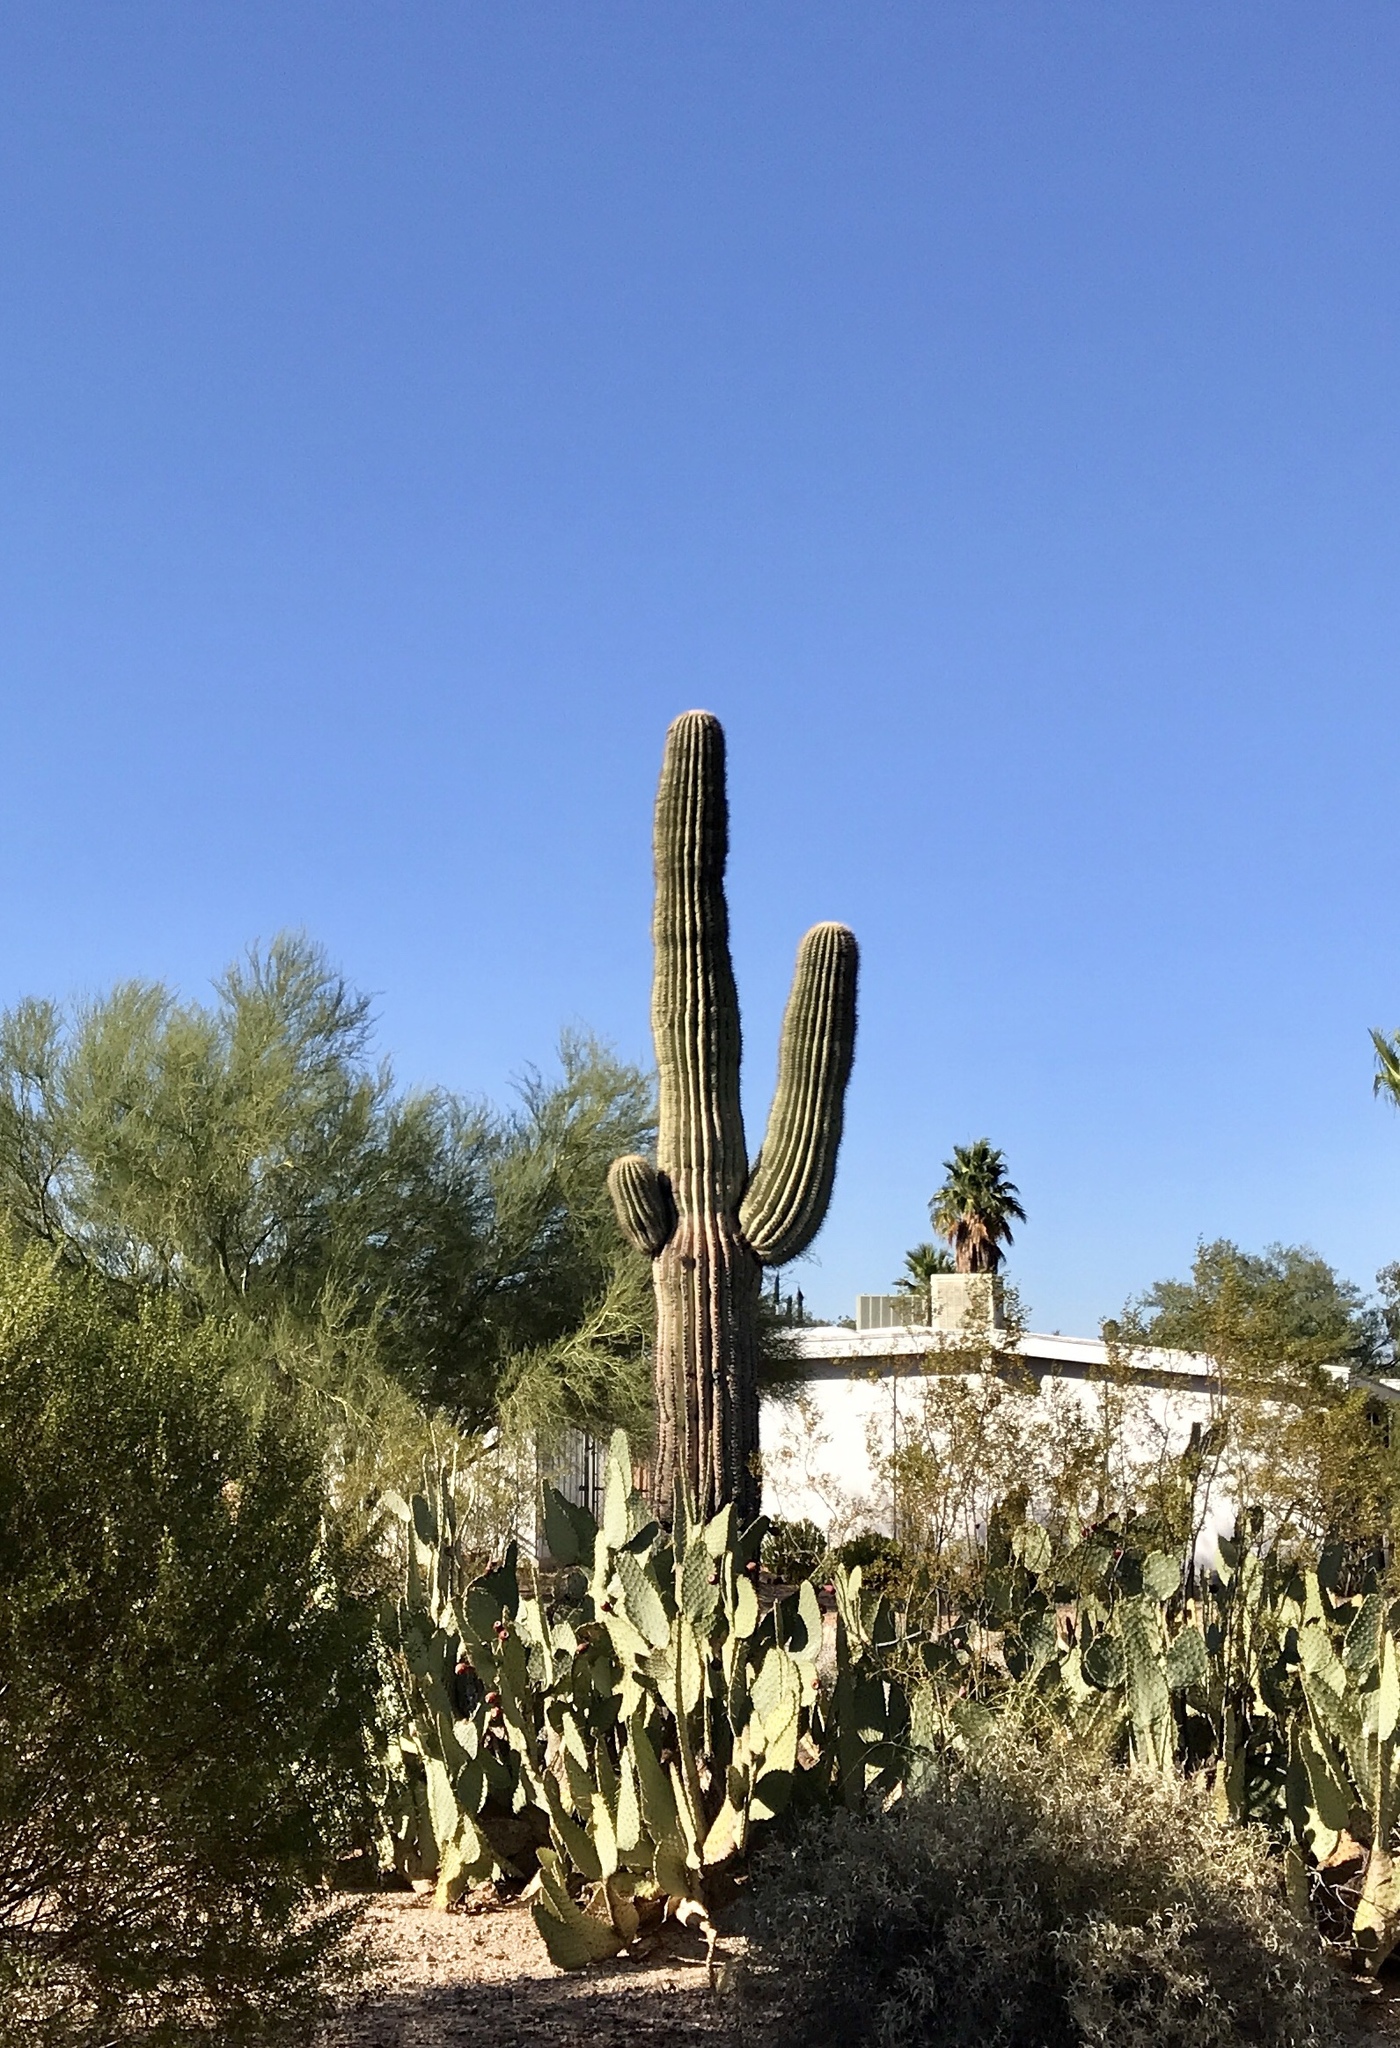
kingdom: Plantae
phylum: Tracheophyta
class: Magnoliopsida
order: Caryophyllales
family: Cactaceae
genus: Carnegiea
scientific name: Carnegiea gigantea
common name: Saguaro
